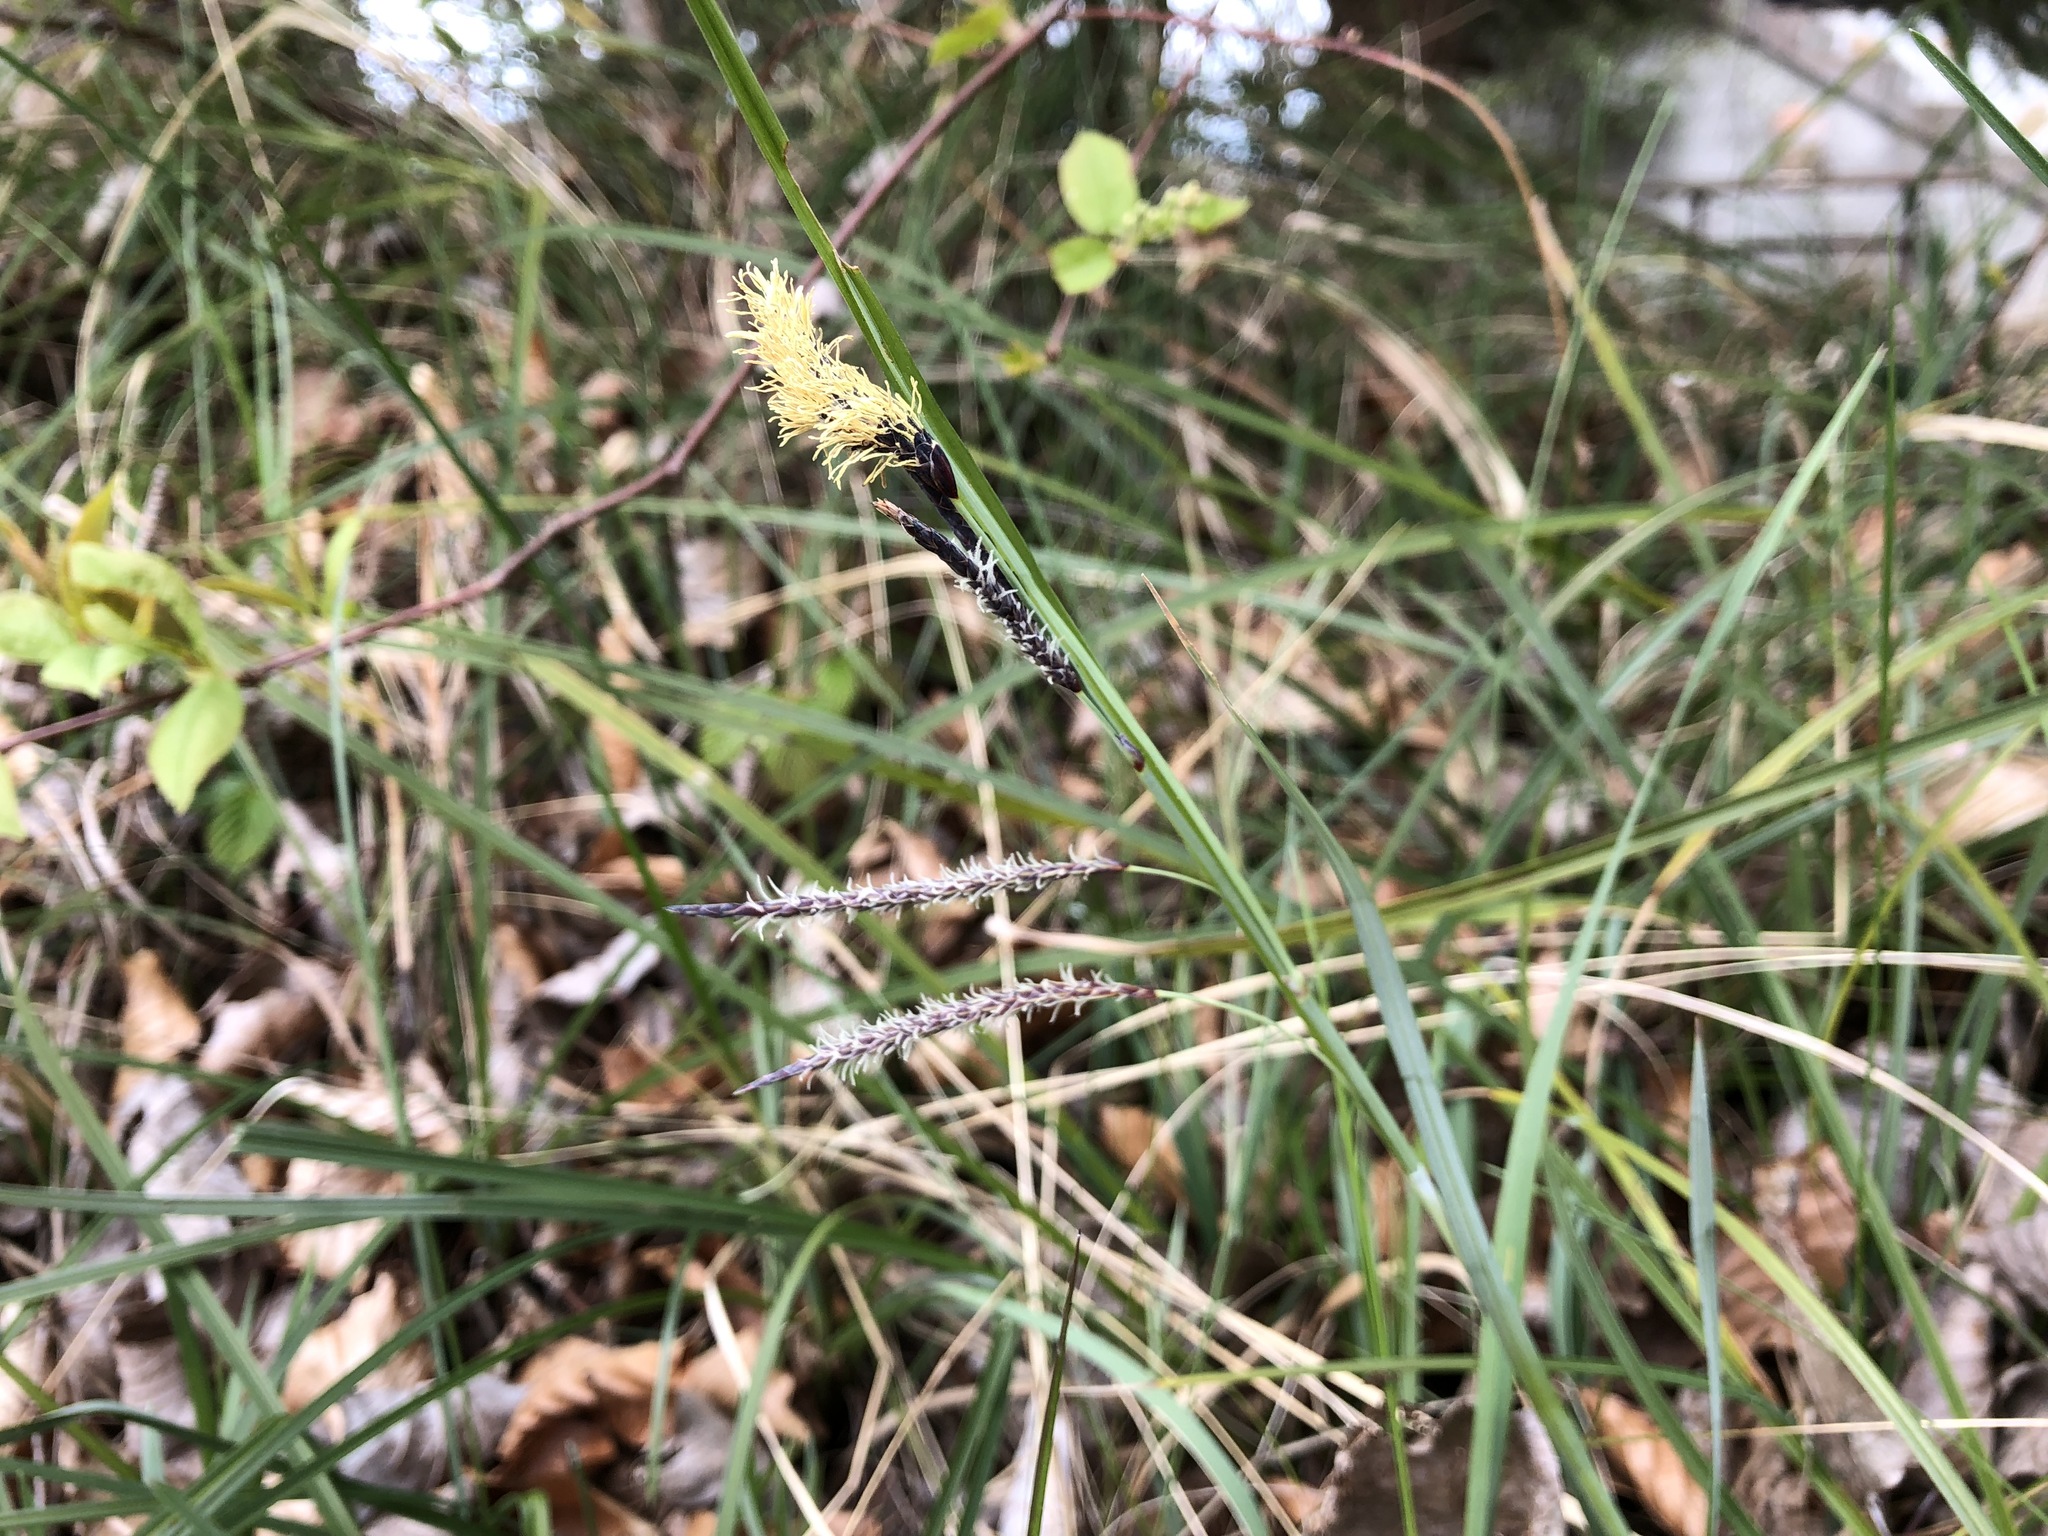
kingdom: Plantae
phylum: Tracheophyta
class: Liliopsida
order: Poales
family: Cyperaceae
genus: Carex
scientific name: Carex flacca
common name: Glaucous sedge
